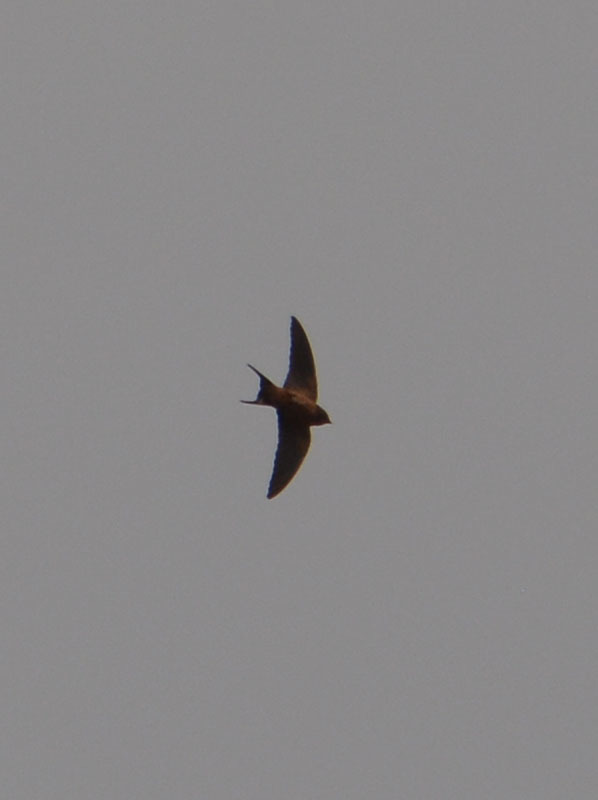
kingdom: Animalia
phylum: Chordata
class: Aves
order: Passeriformes
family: Hirundinidae
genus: Hirundo
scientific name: Hirundo rustica
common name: Barn swallow
